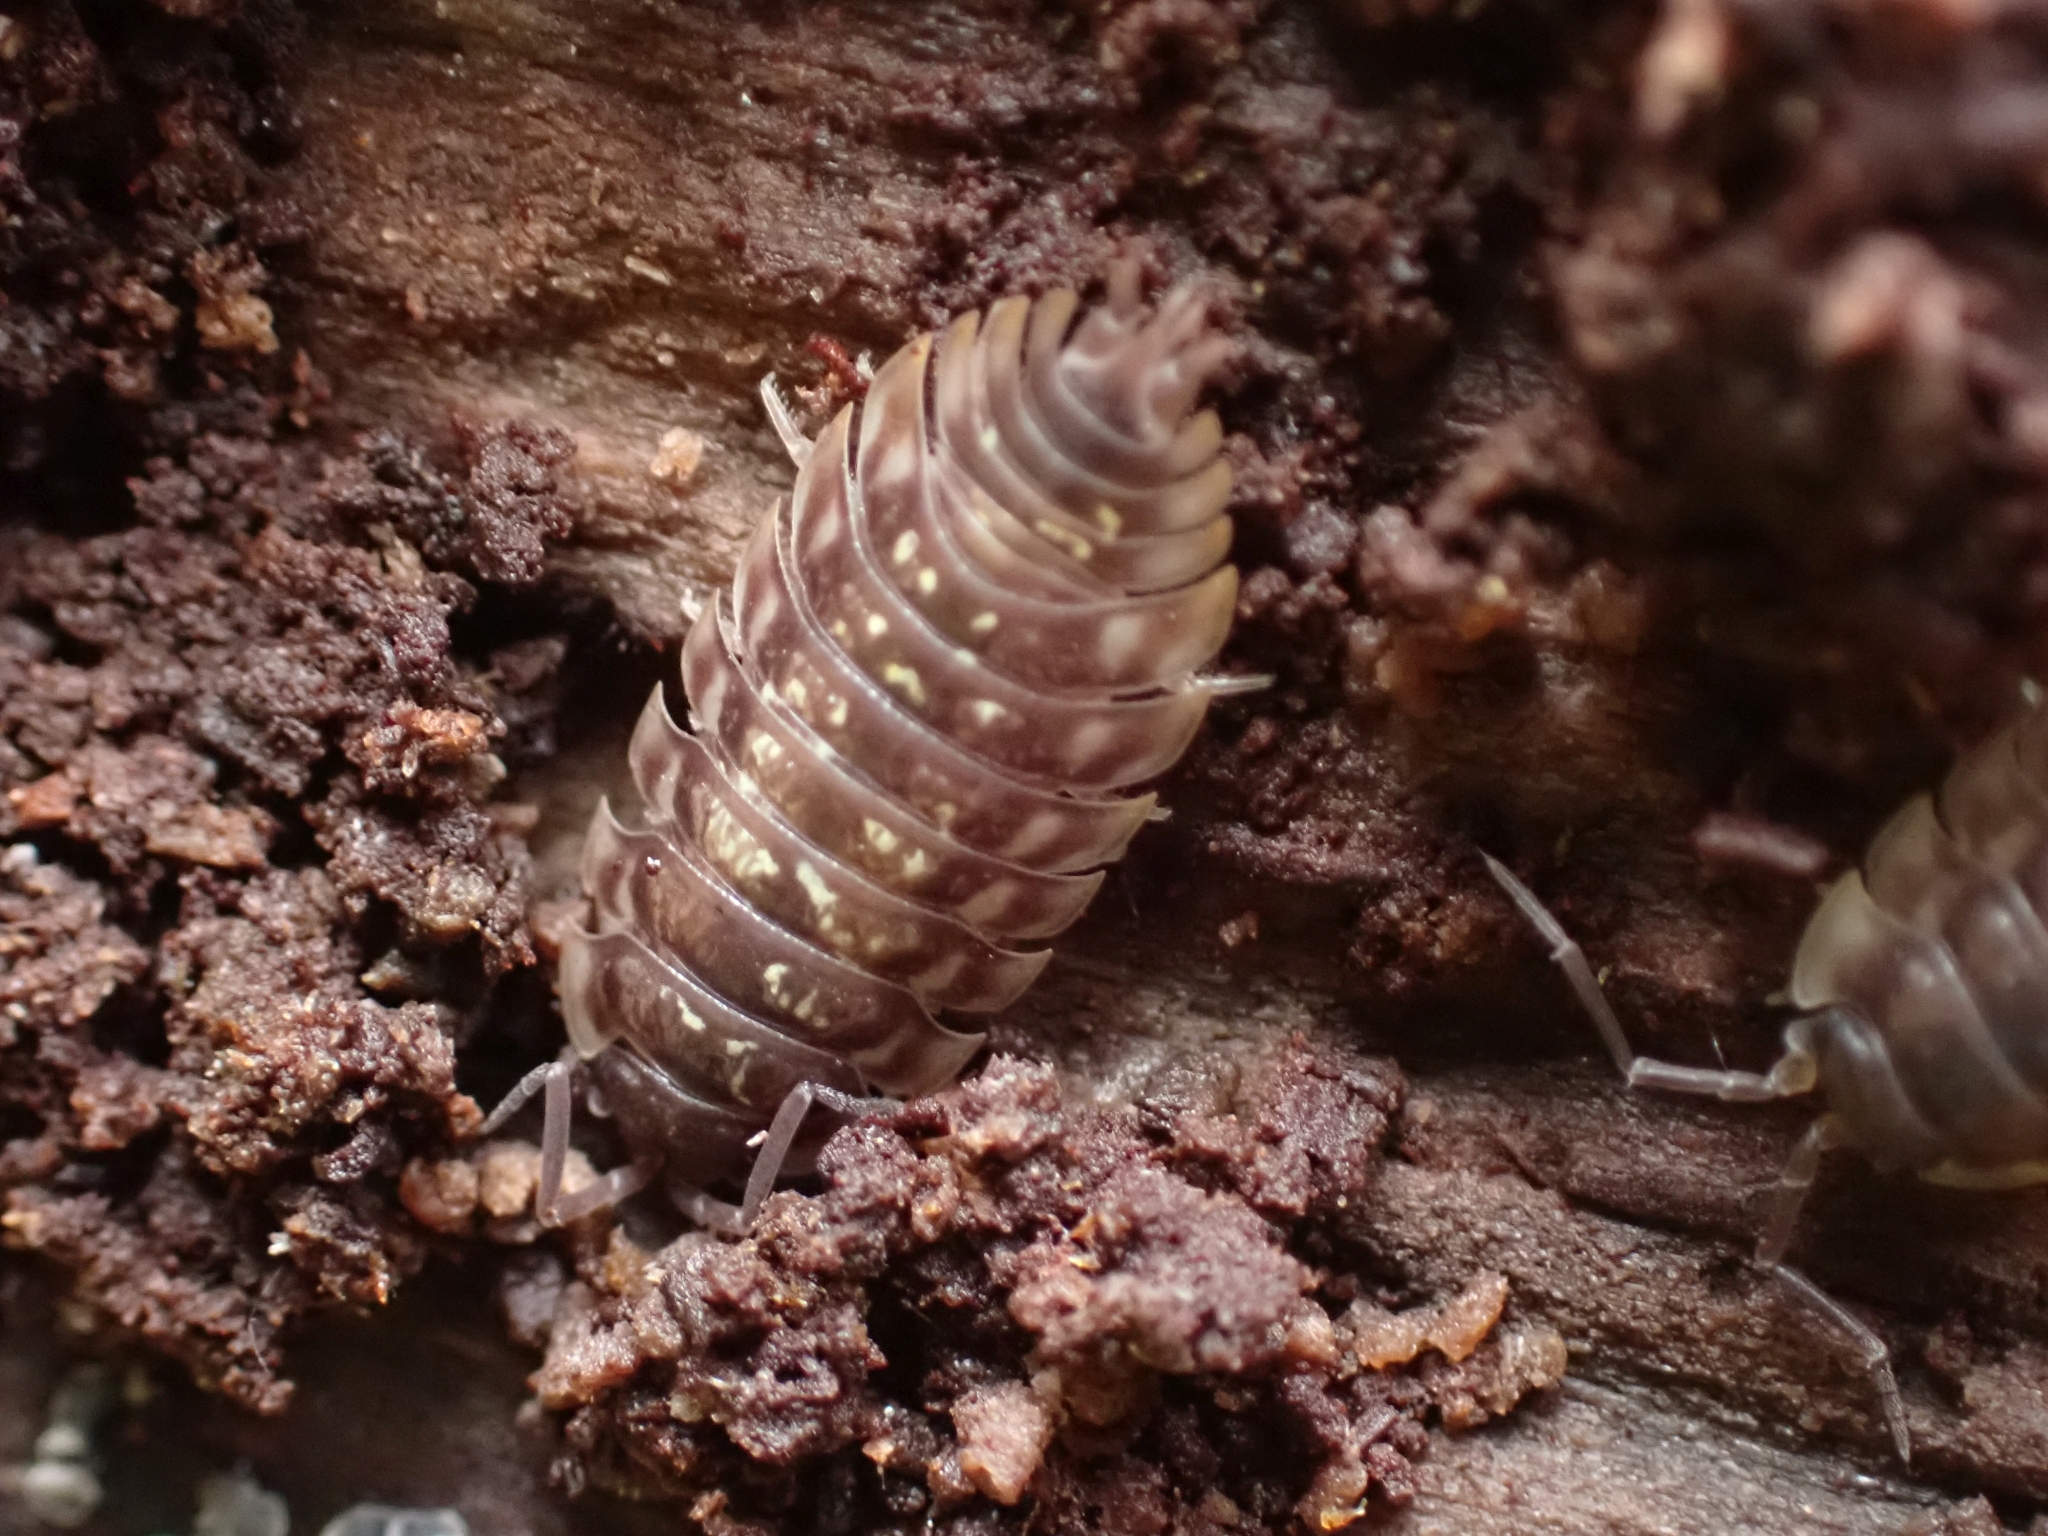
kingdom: Animalia
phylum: Arthropoda
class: Malacostraca
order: Isopoda
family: Oniscidae
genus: Oniscus
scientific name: Oniscus asellus
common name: Common shiny woodlouse
